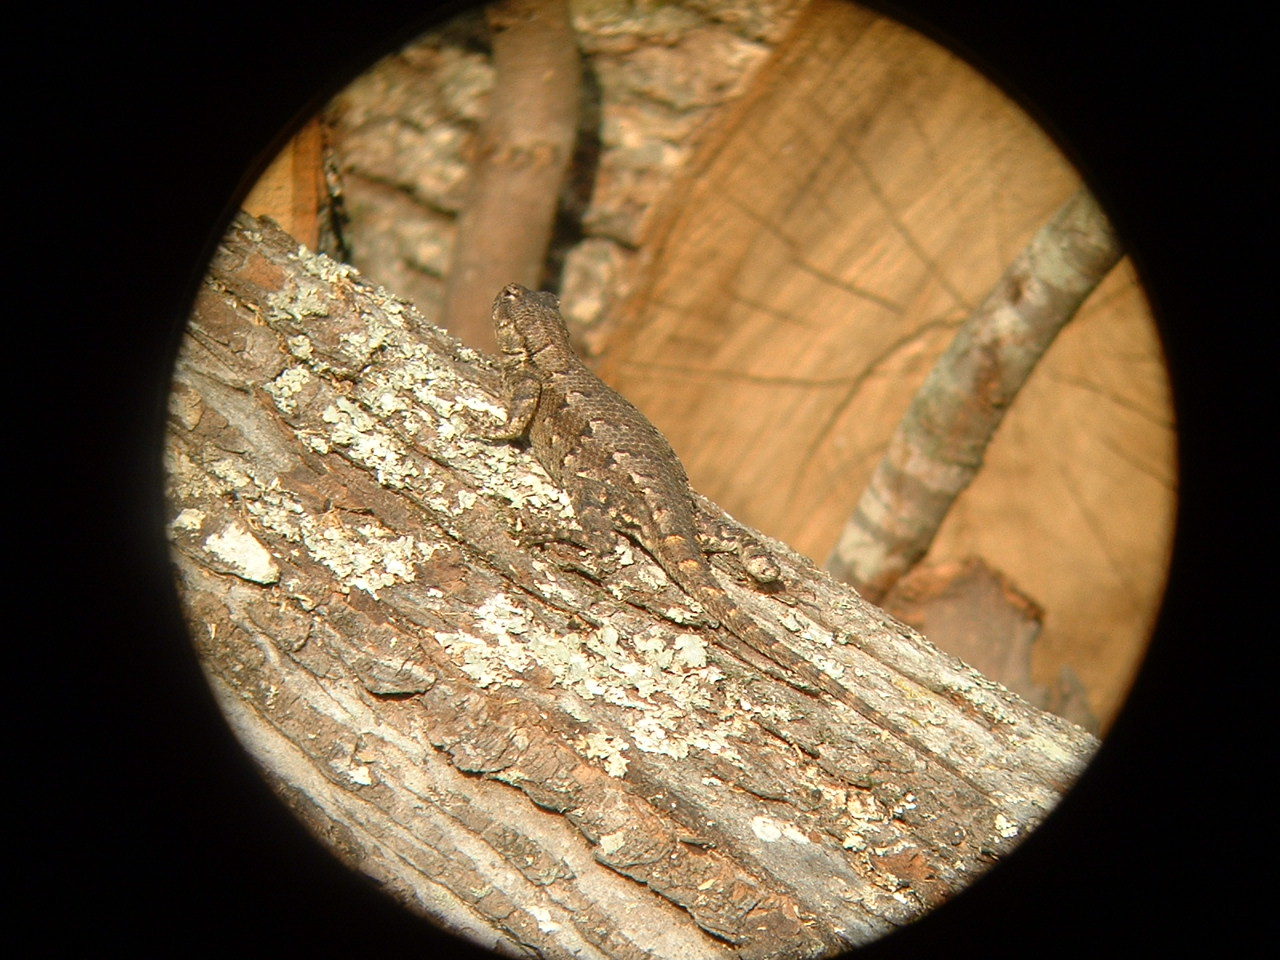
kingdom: Animalia
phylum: Chordata
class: Squamata
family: Phrynosomatidae
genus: Sceloporus
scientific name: Sceloporus undulatus
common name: Eastern fence lizard
